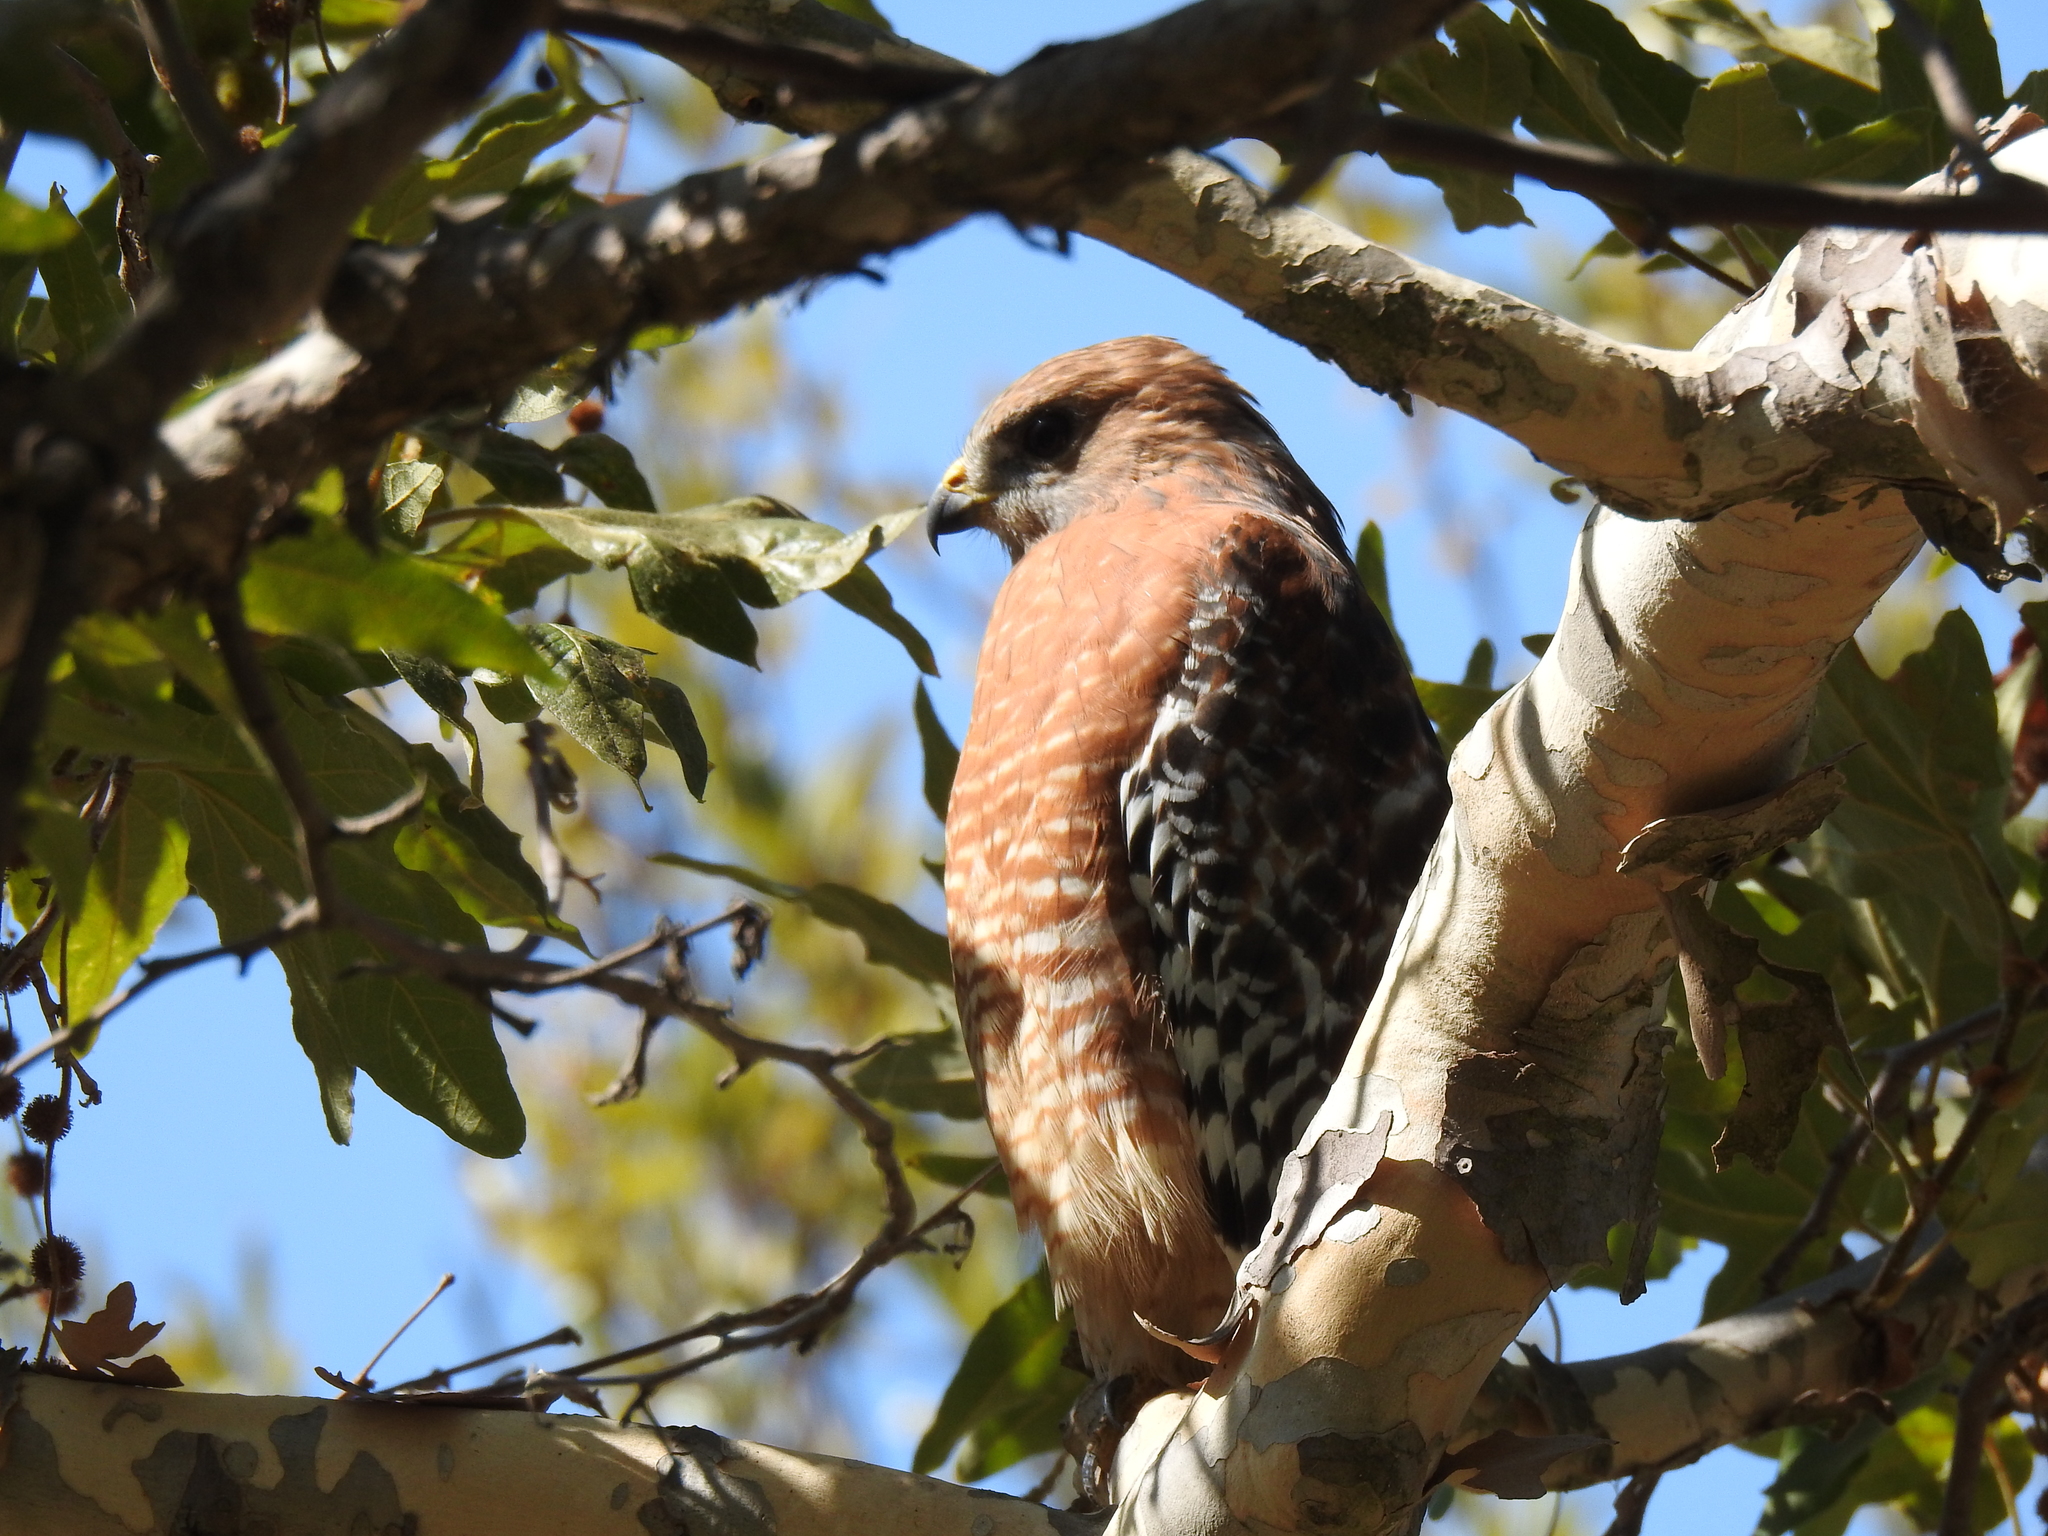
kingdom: Animalia
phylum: Chordata
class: Aves
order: Accipitriformes
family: Accipitridae
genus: Buteo
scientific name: Buteo lineatus
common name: Red-shouldered hawk
